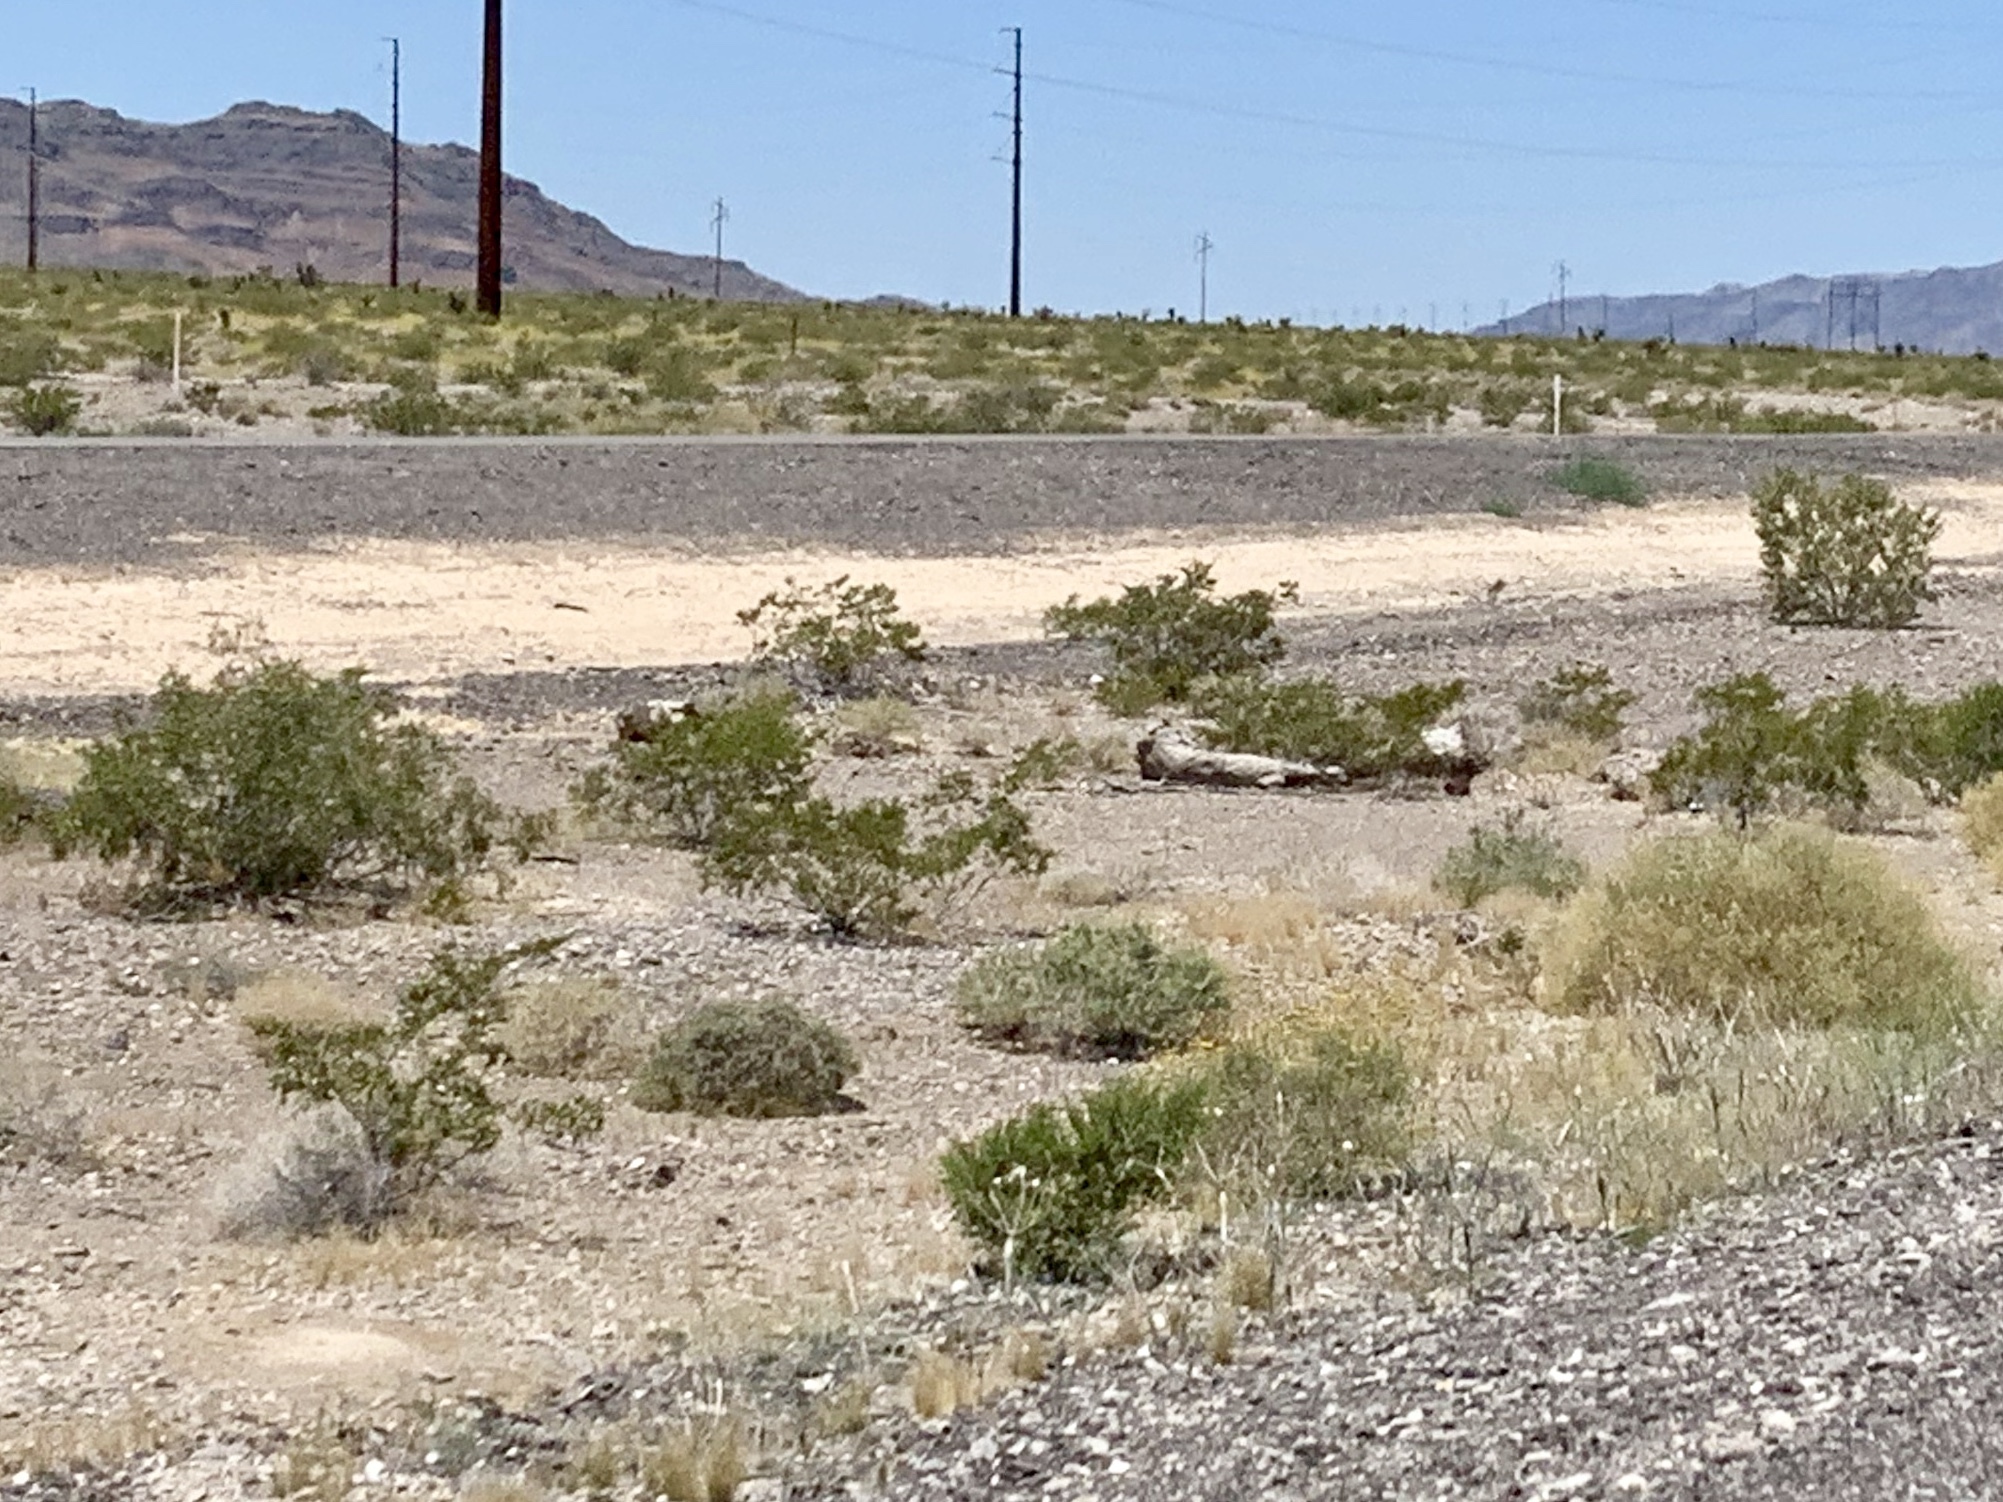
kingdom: Plantae
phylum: Tracheophyta
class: Magnoliopsida
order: Zygophyllales
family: Zygophyllaceae
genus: Larrea
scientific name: Larrea tridentata
